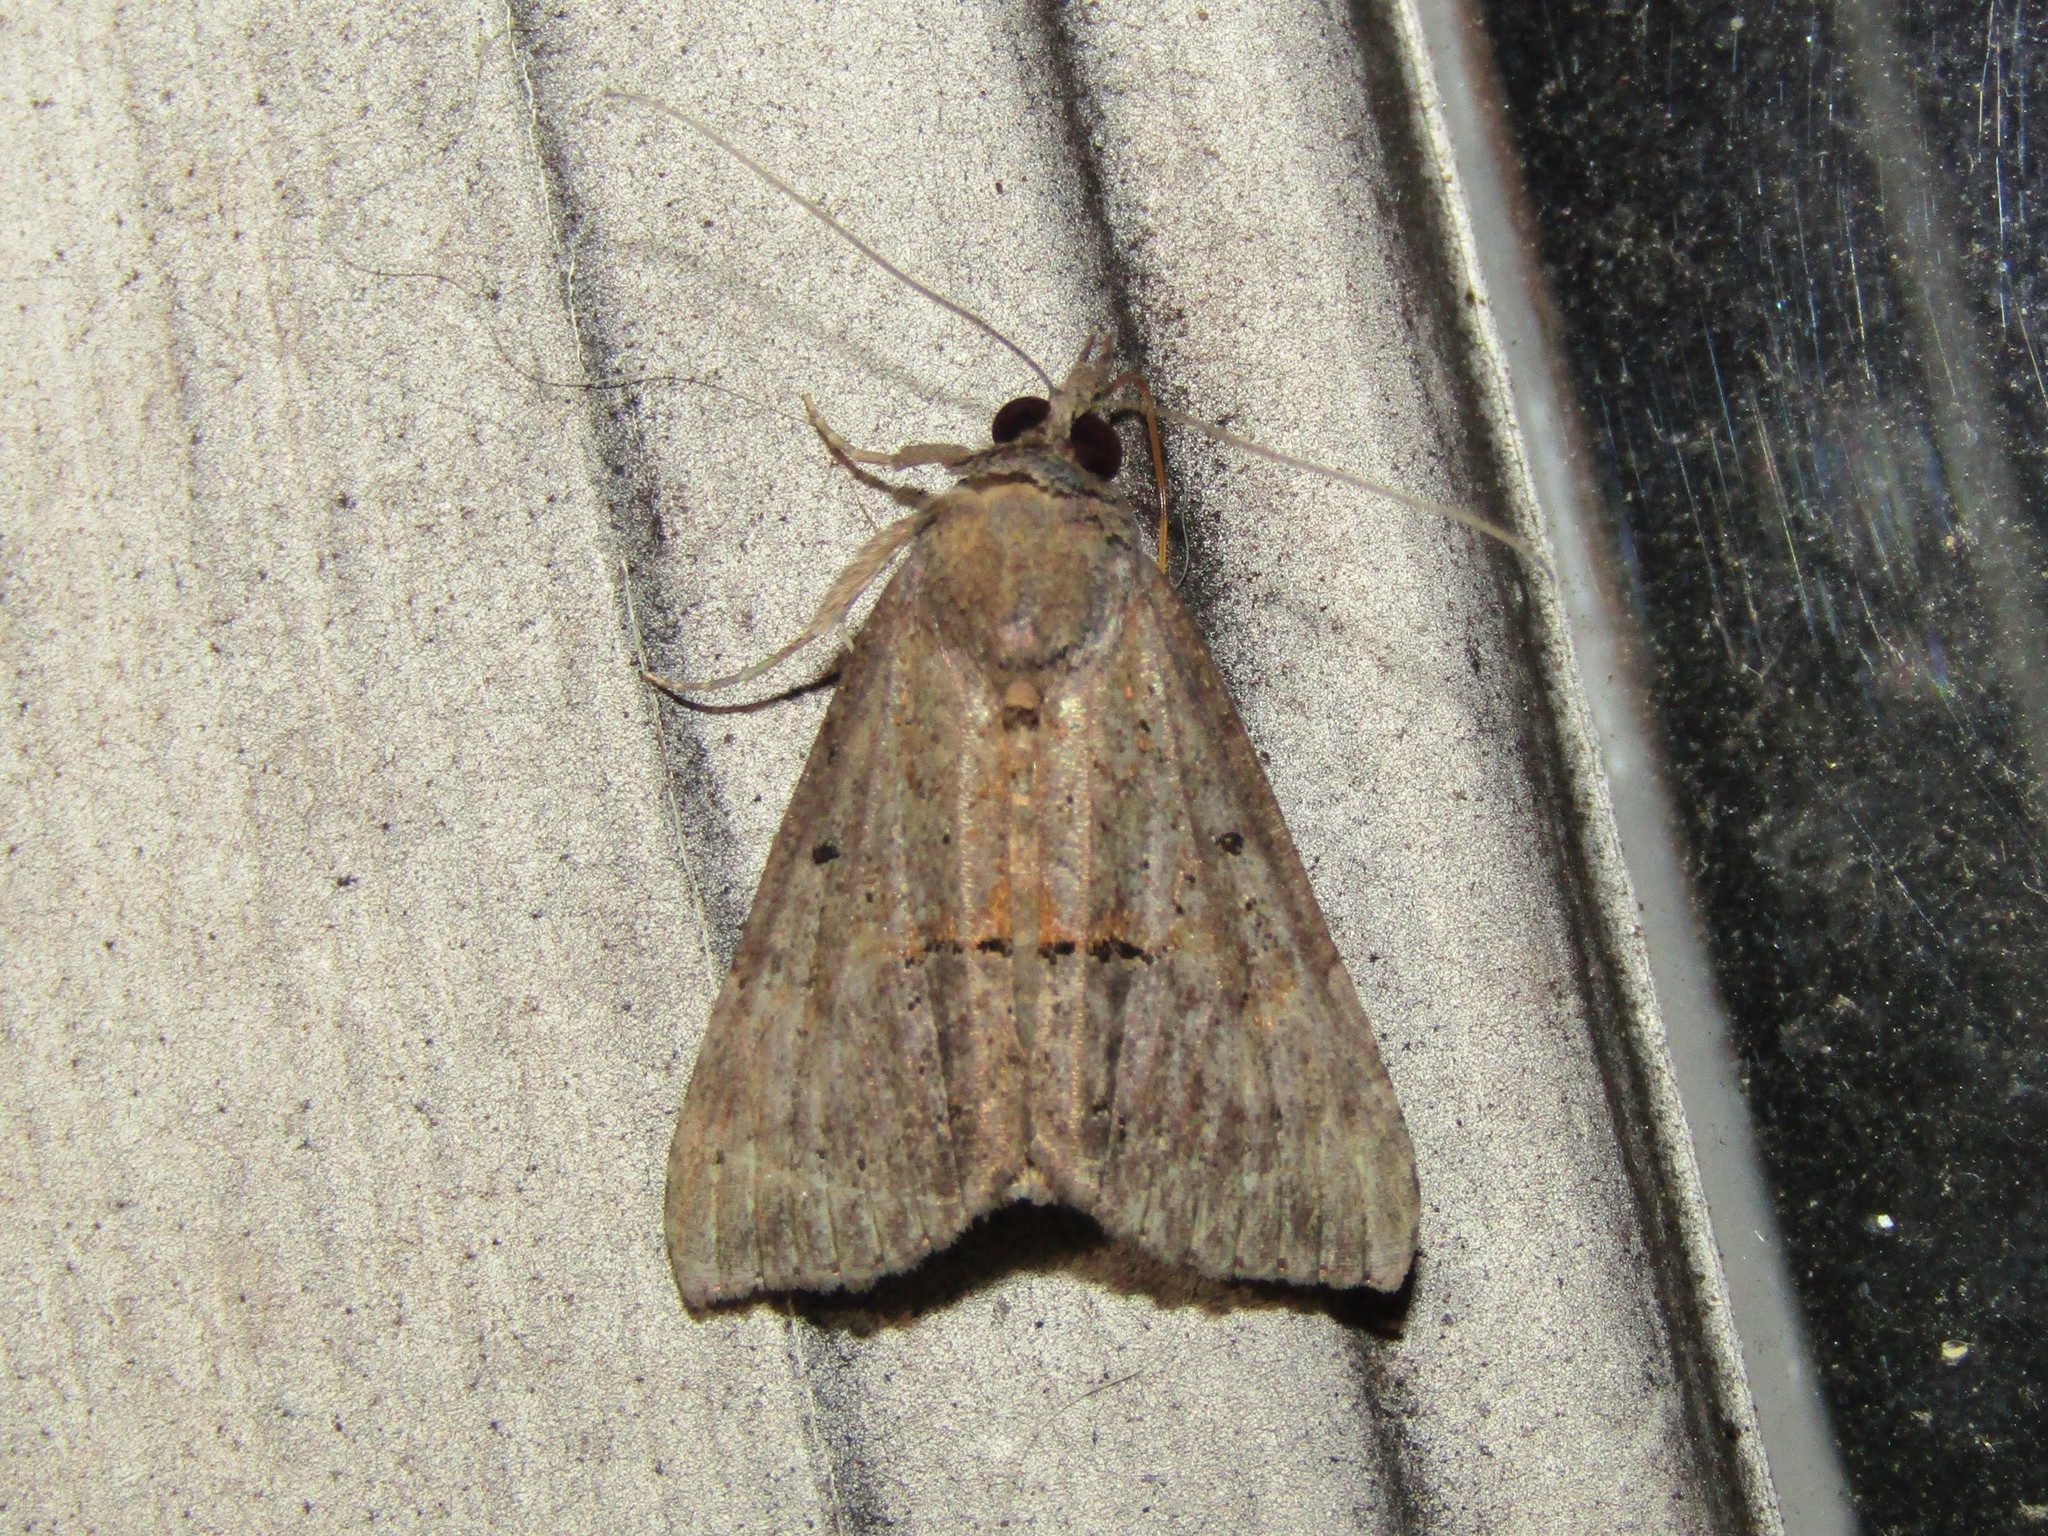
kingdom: Animalia
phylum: Arthropoda
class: Insecta
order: Lepidoptera
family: Erebidae
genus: Hypena
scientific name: Hypena scabra
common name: Green cloverworm
